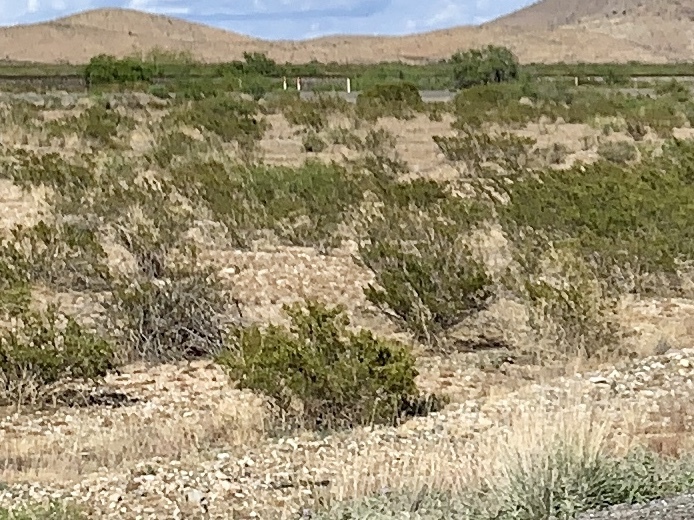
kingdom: Plantae
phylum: Tracheophyta
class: Magnoliopsida
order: Zygophyllales
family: Zygophyllaceae
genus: Larrea
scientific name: Larrea tridentata
